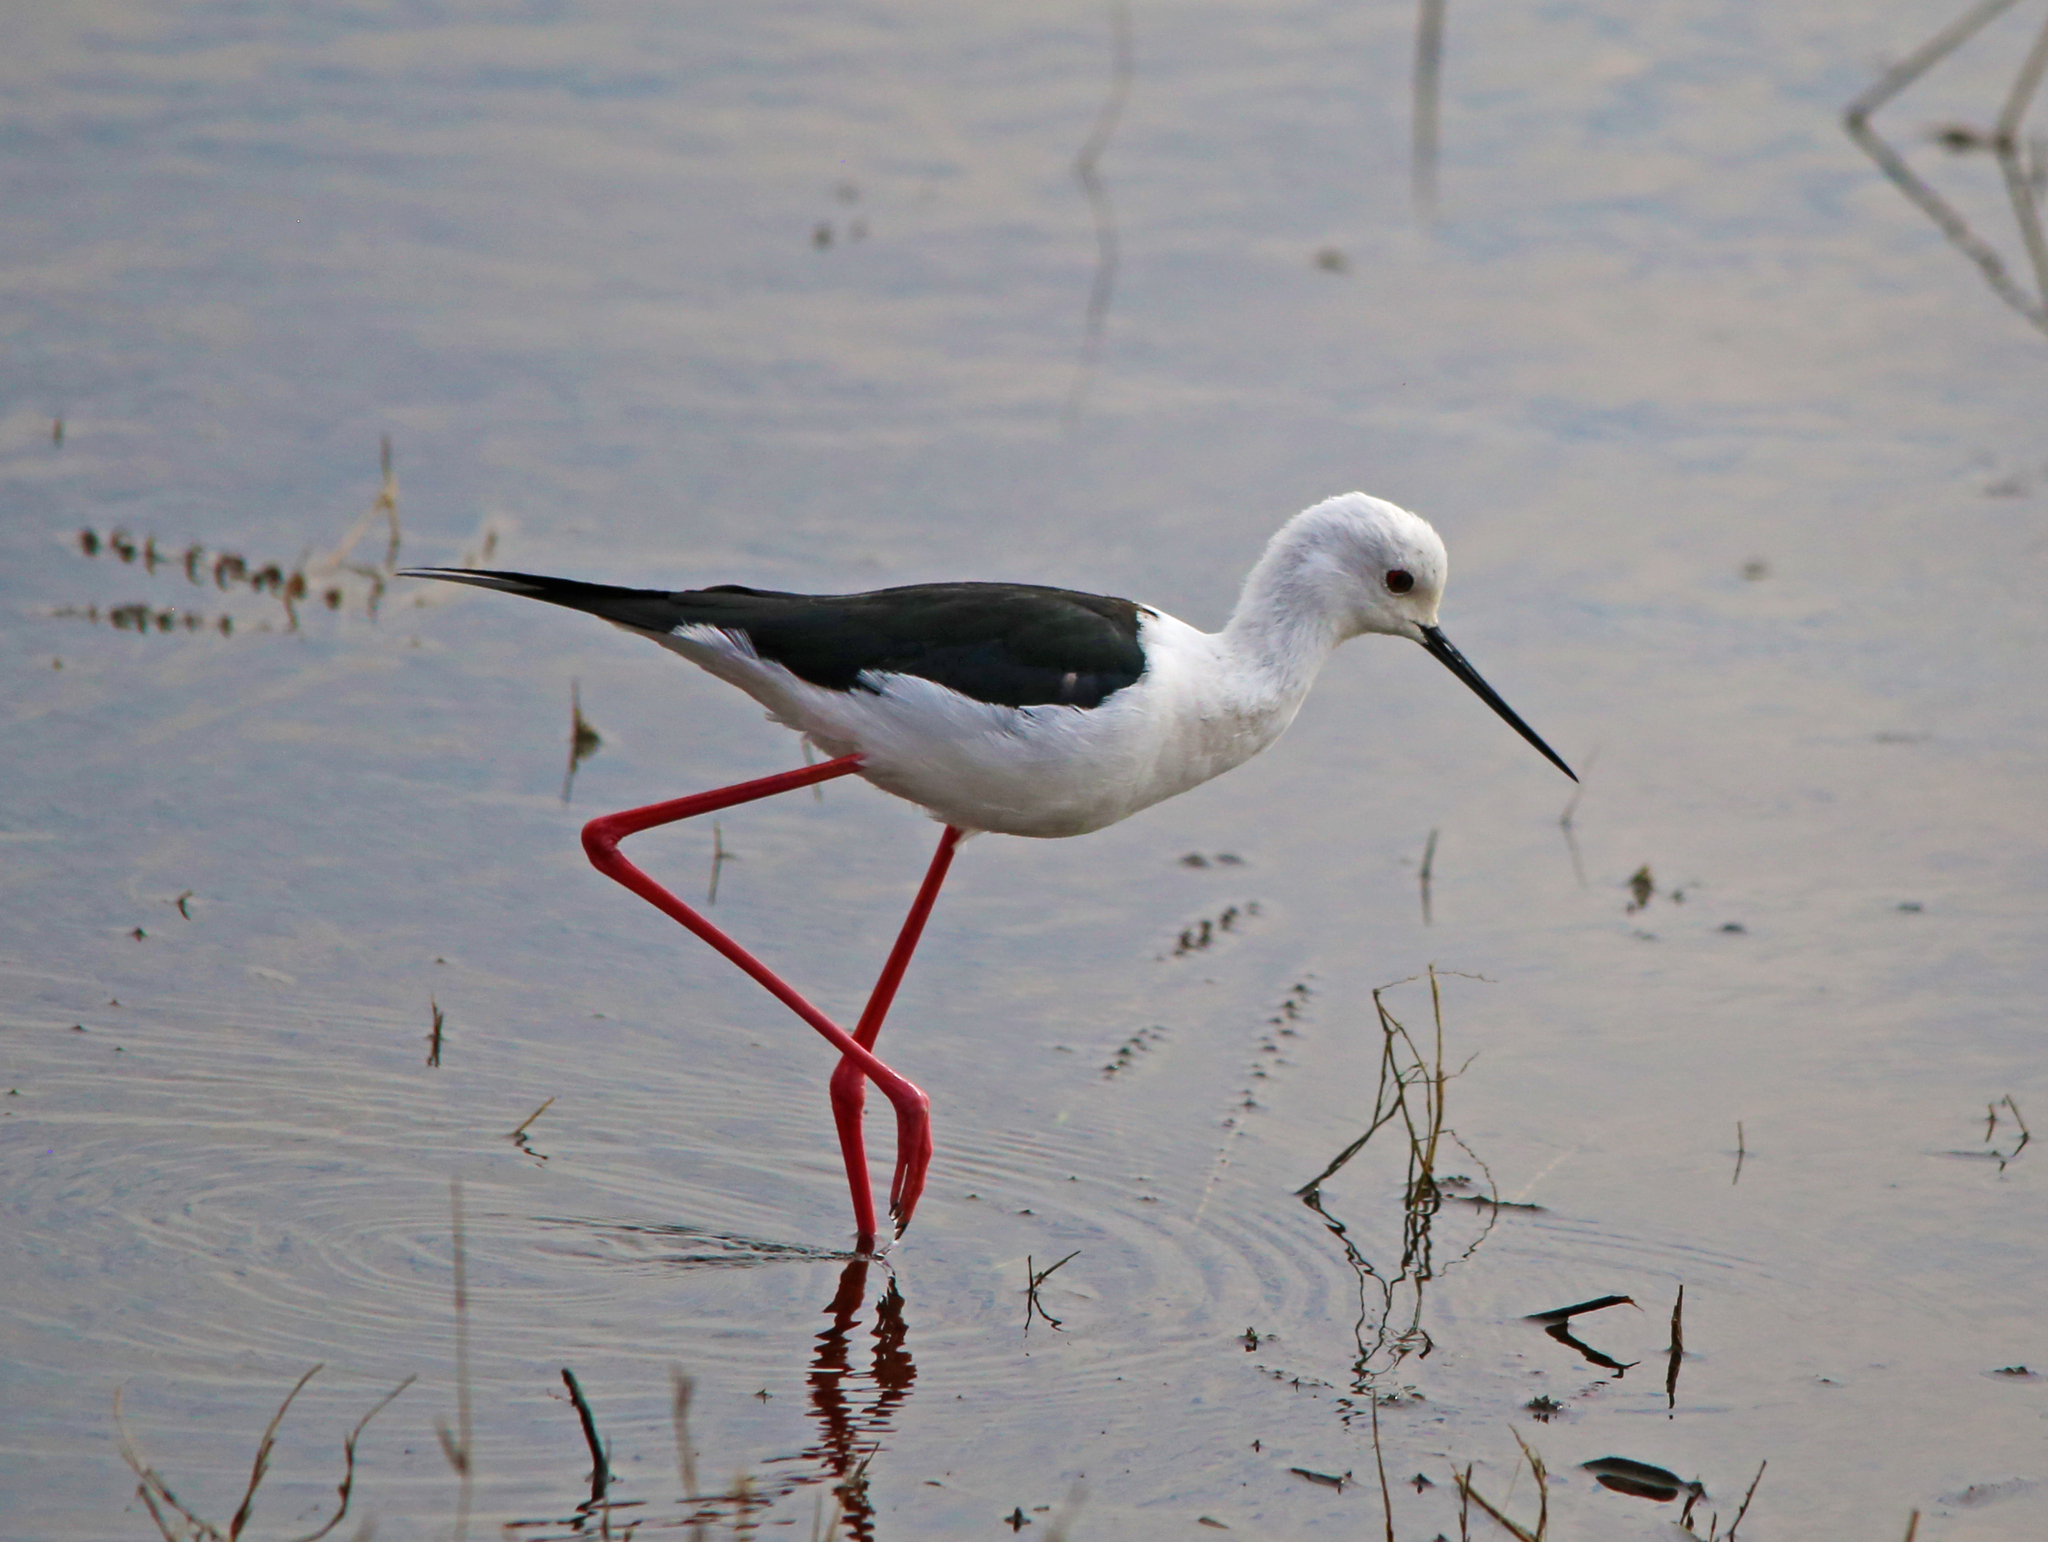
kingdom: Animalia
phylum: Chordata
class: Aves
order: Charadriiformes
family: Recurvirostridae
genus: Himantopus
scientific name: Himantopus himantopus
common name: Black-winged stilt
